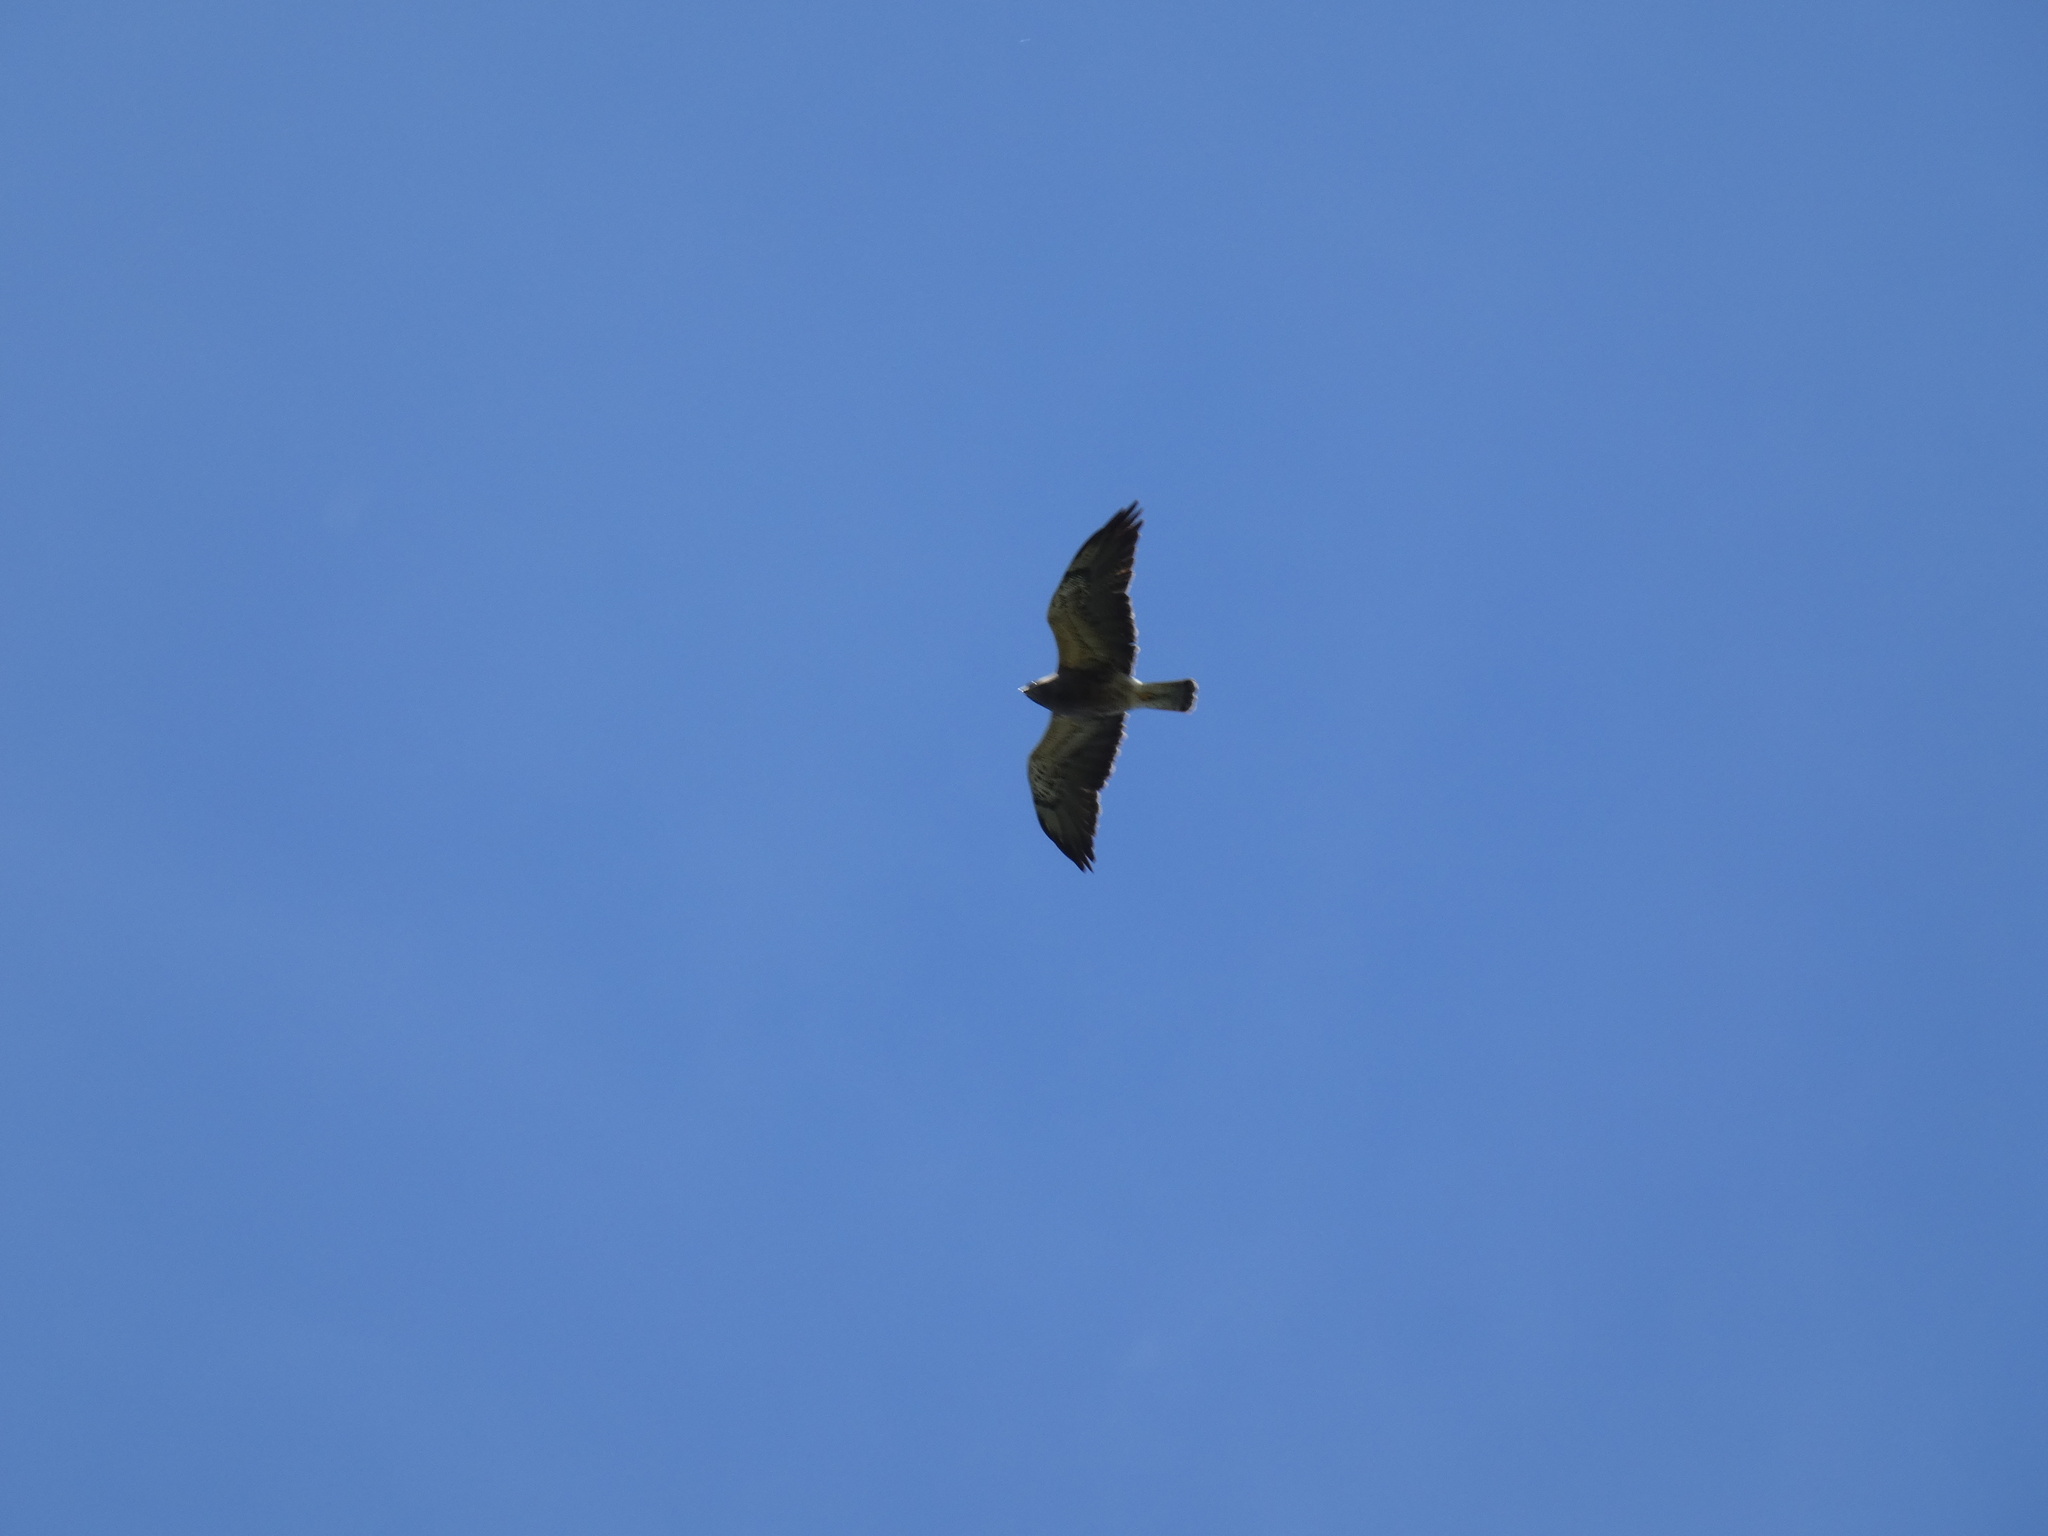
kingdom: Animalia
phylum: Chordata
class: Aves
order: Accipitriformes
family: Accipitridae
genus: Buteo
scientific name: Buteo swainsoni
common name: Swainson's hawk
